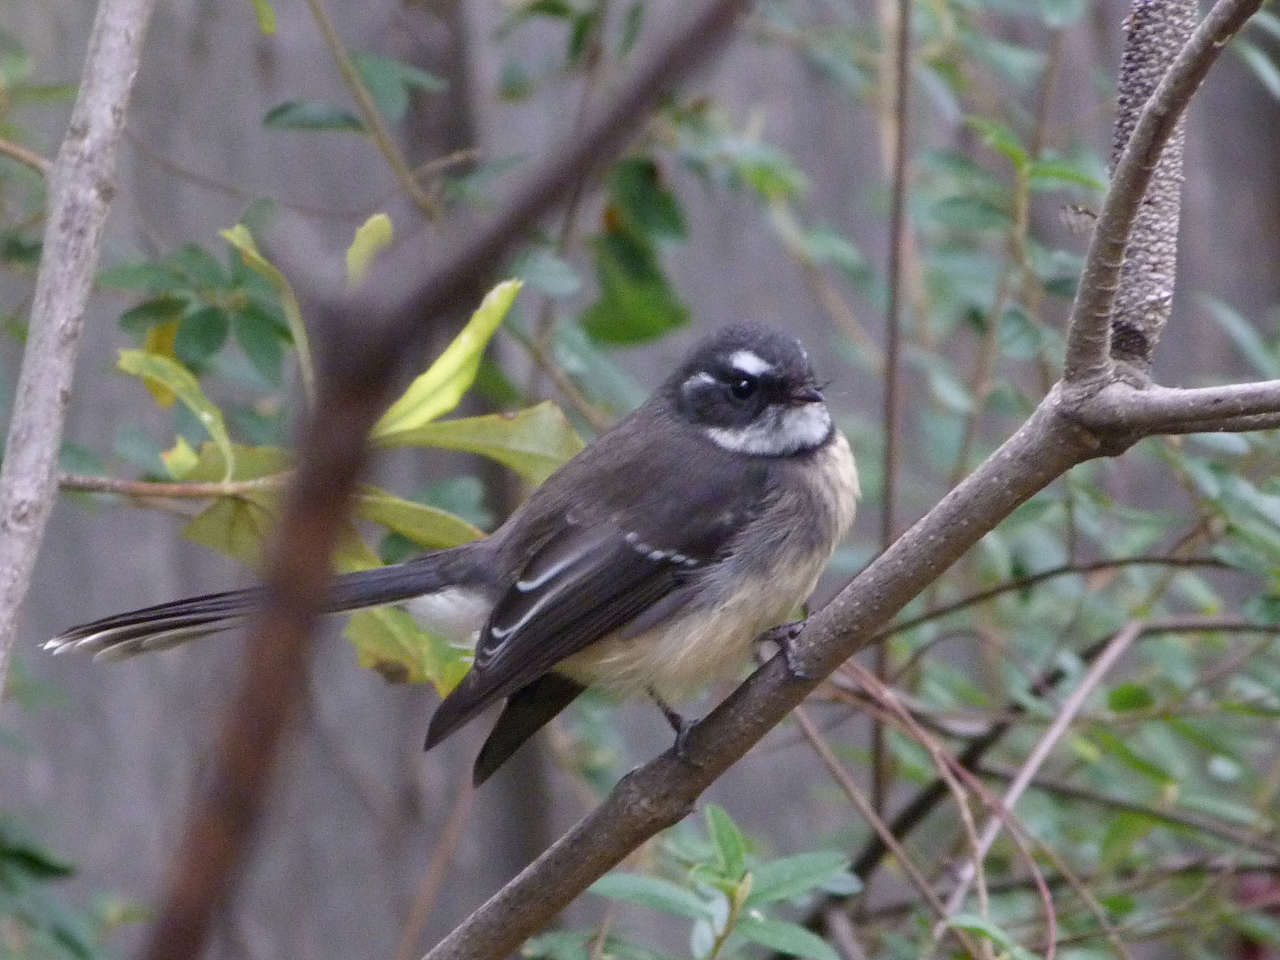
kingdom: Animalia
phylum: Chordata
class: Aves
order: Passeriformes
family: Rhipiduridae
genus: Rhipidura
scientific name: Rhipidura albiscapa
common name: Grey fantail
